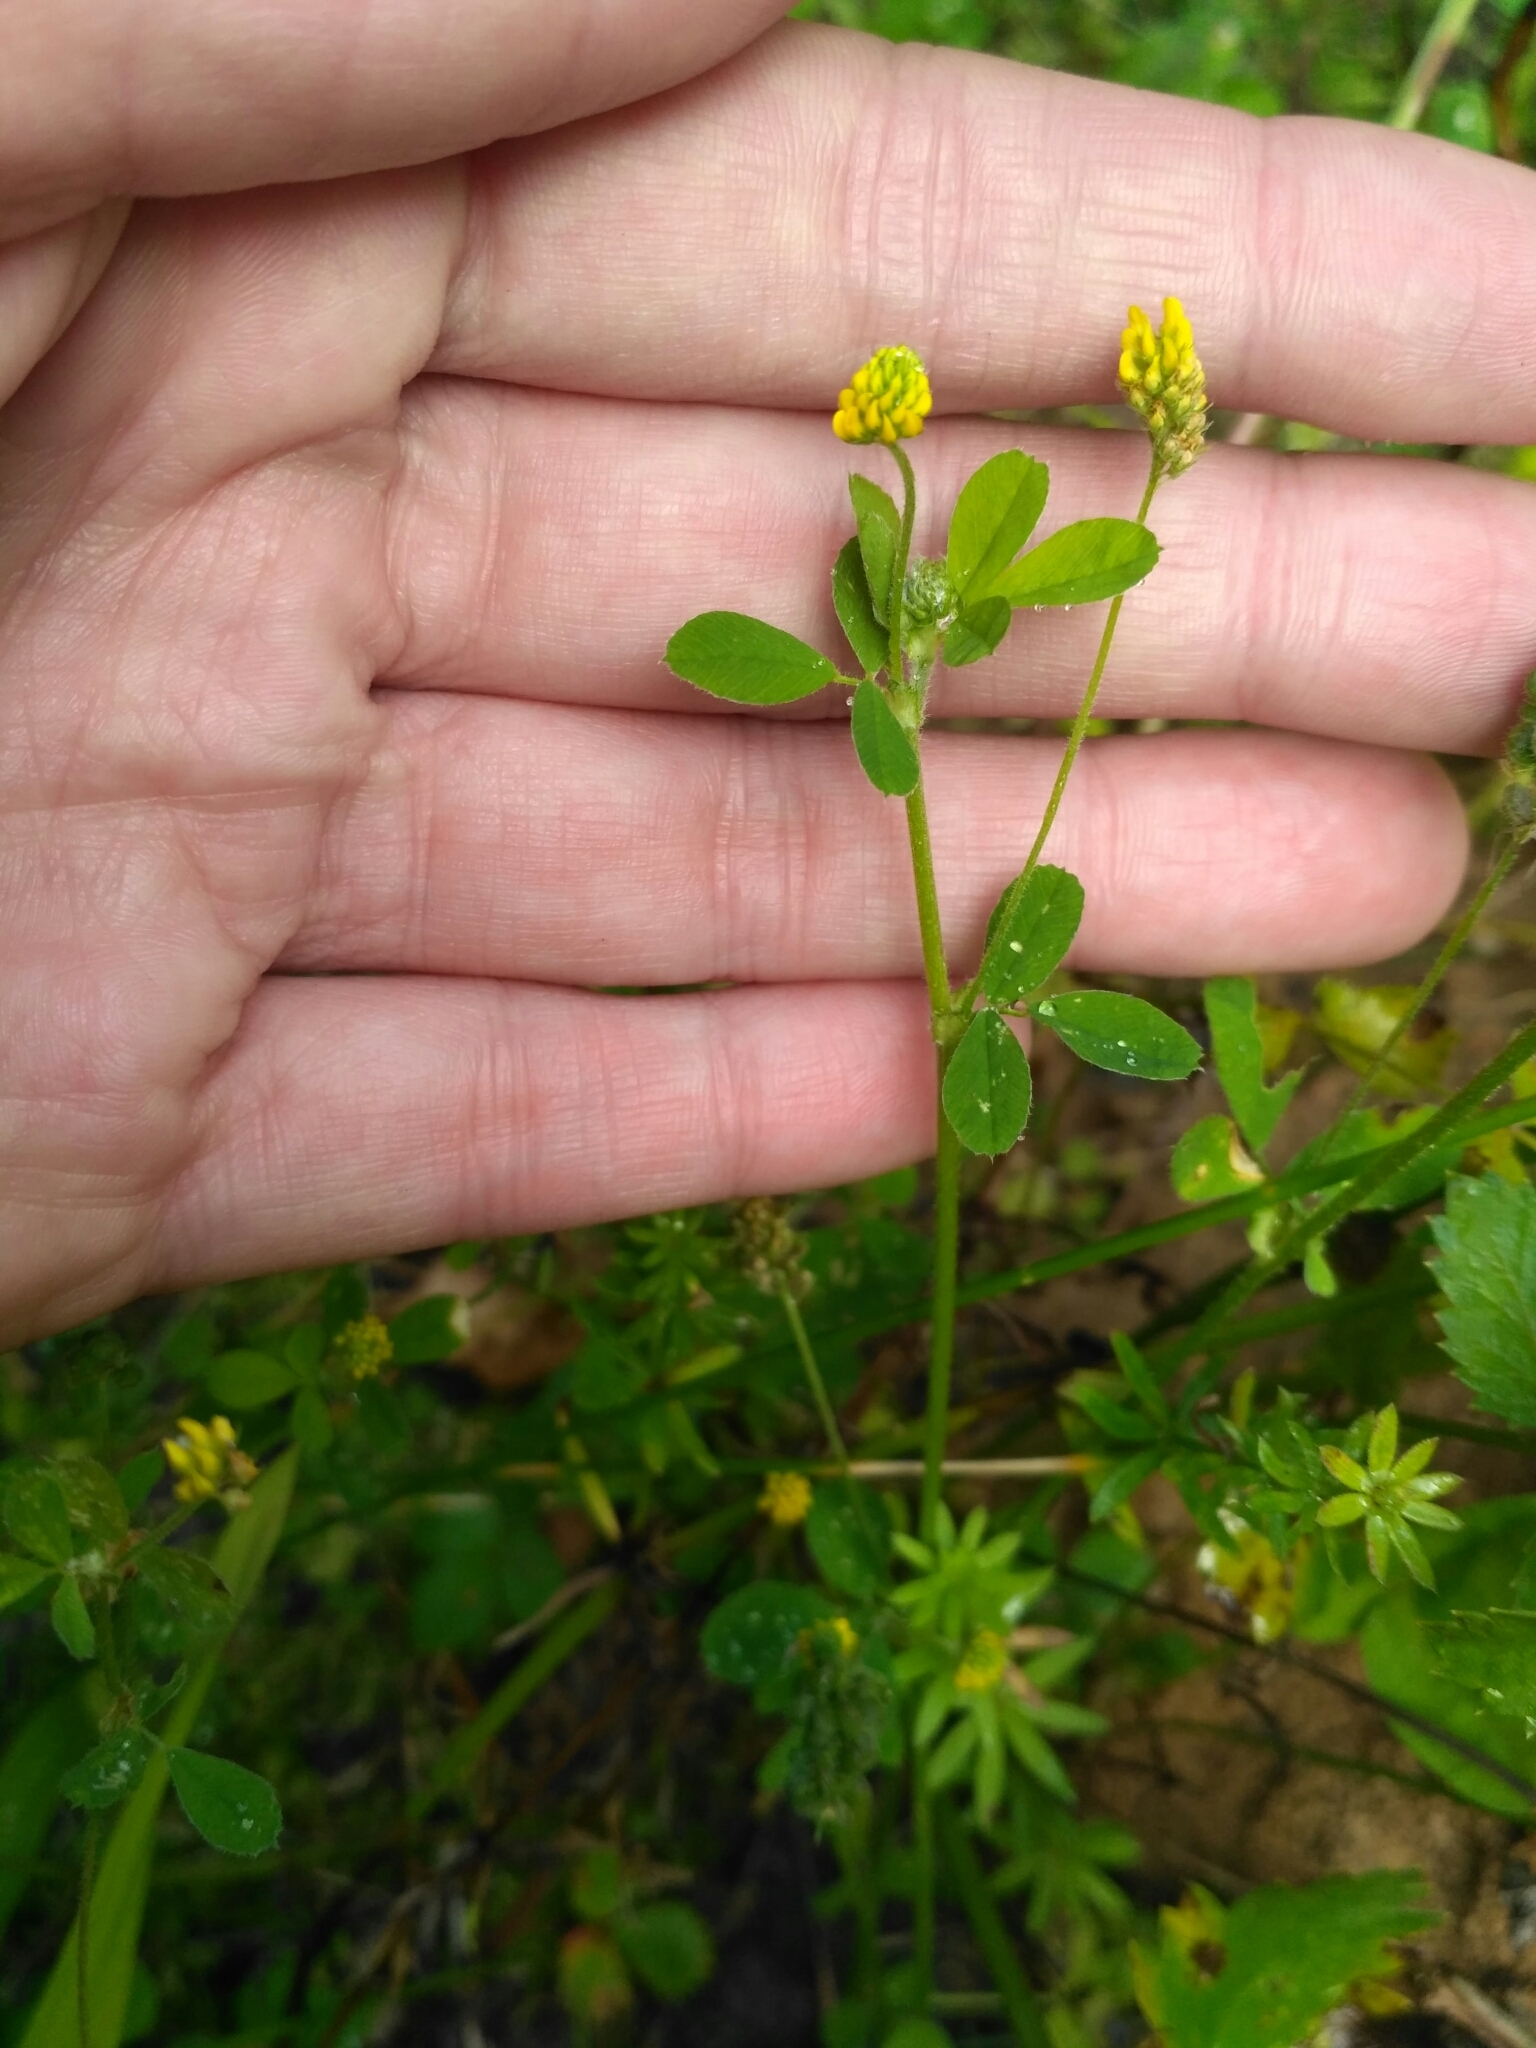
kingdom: Plantae
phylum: Tracheophyta
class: Magnoliopsida
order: Fabales
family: Fabaceae
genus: Medicago
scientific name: Medicago lupulina
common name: Black medick
